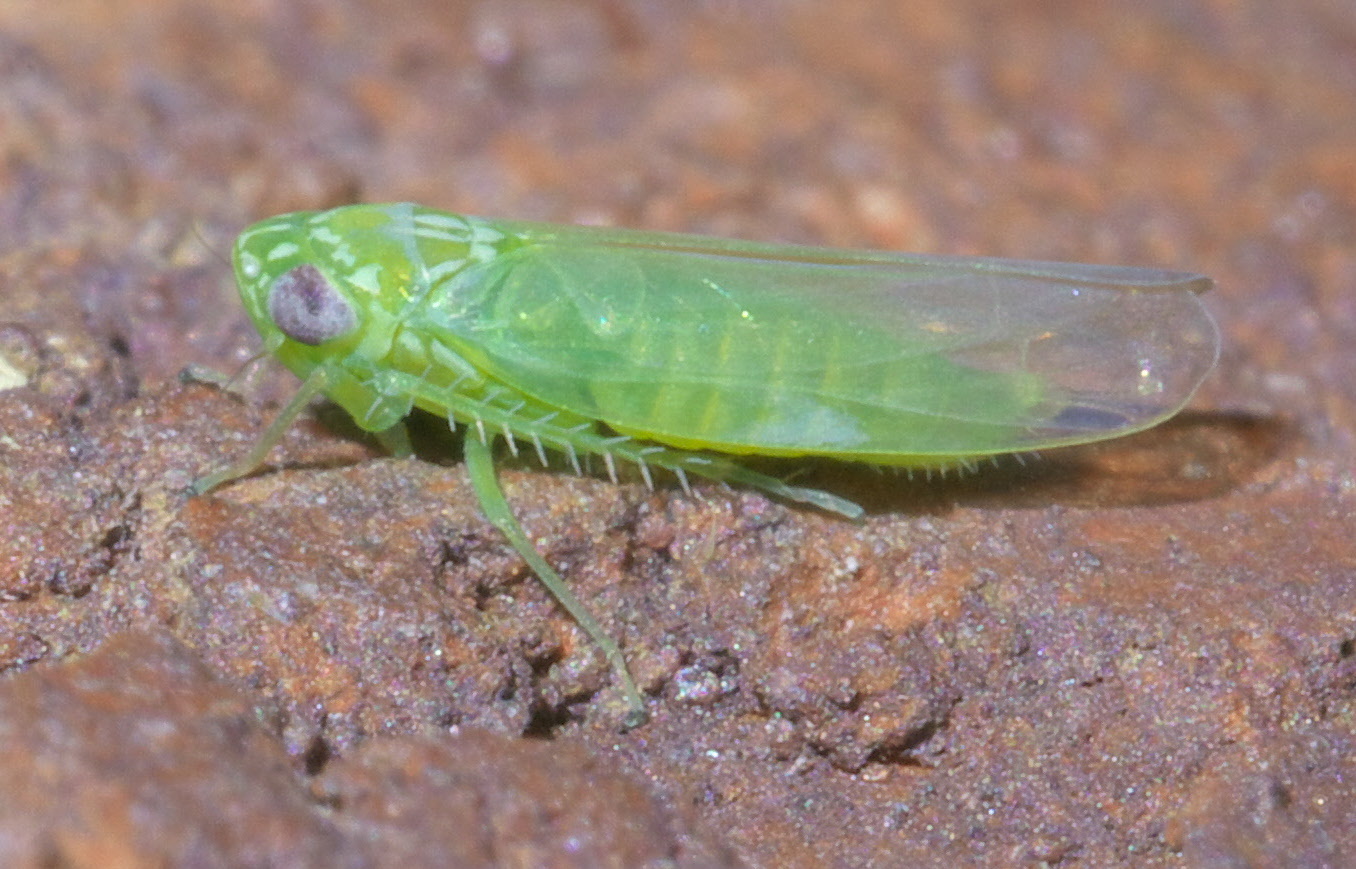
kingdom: Animalia
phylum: Arthropoda
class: Insecta
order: Hemiptera
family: Cicadellidae
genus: Empoasca
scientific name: Empoasca fabae
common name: Potato leafhopper
